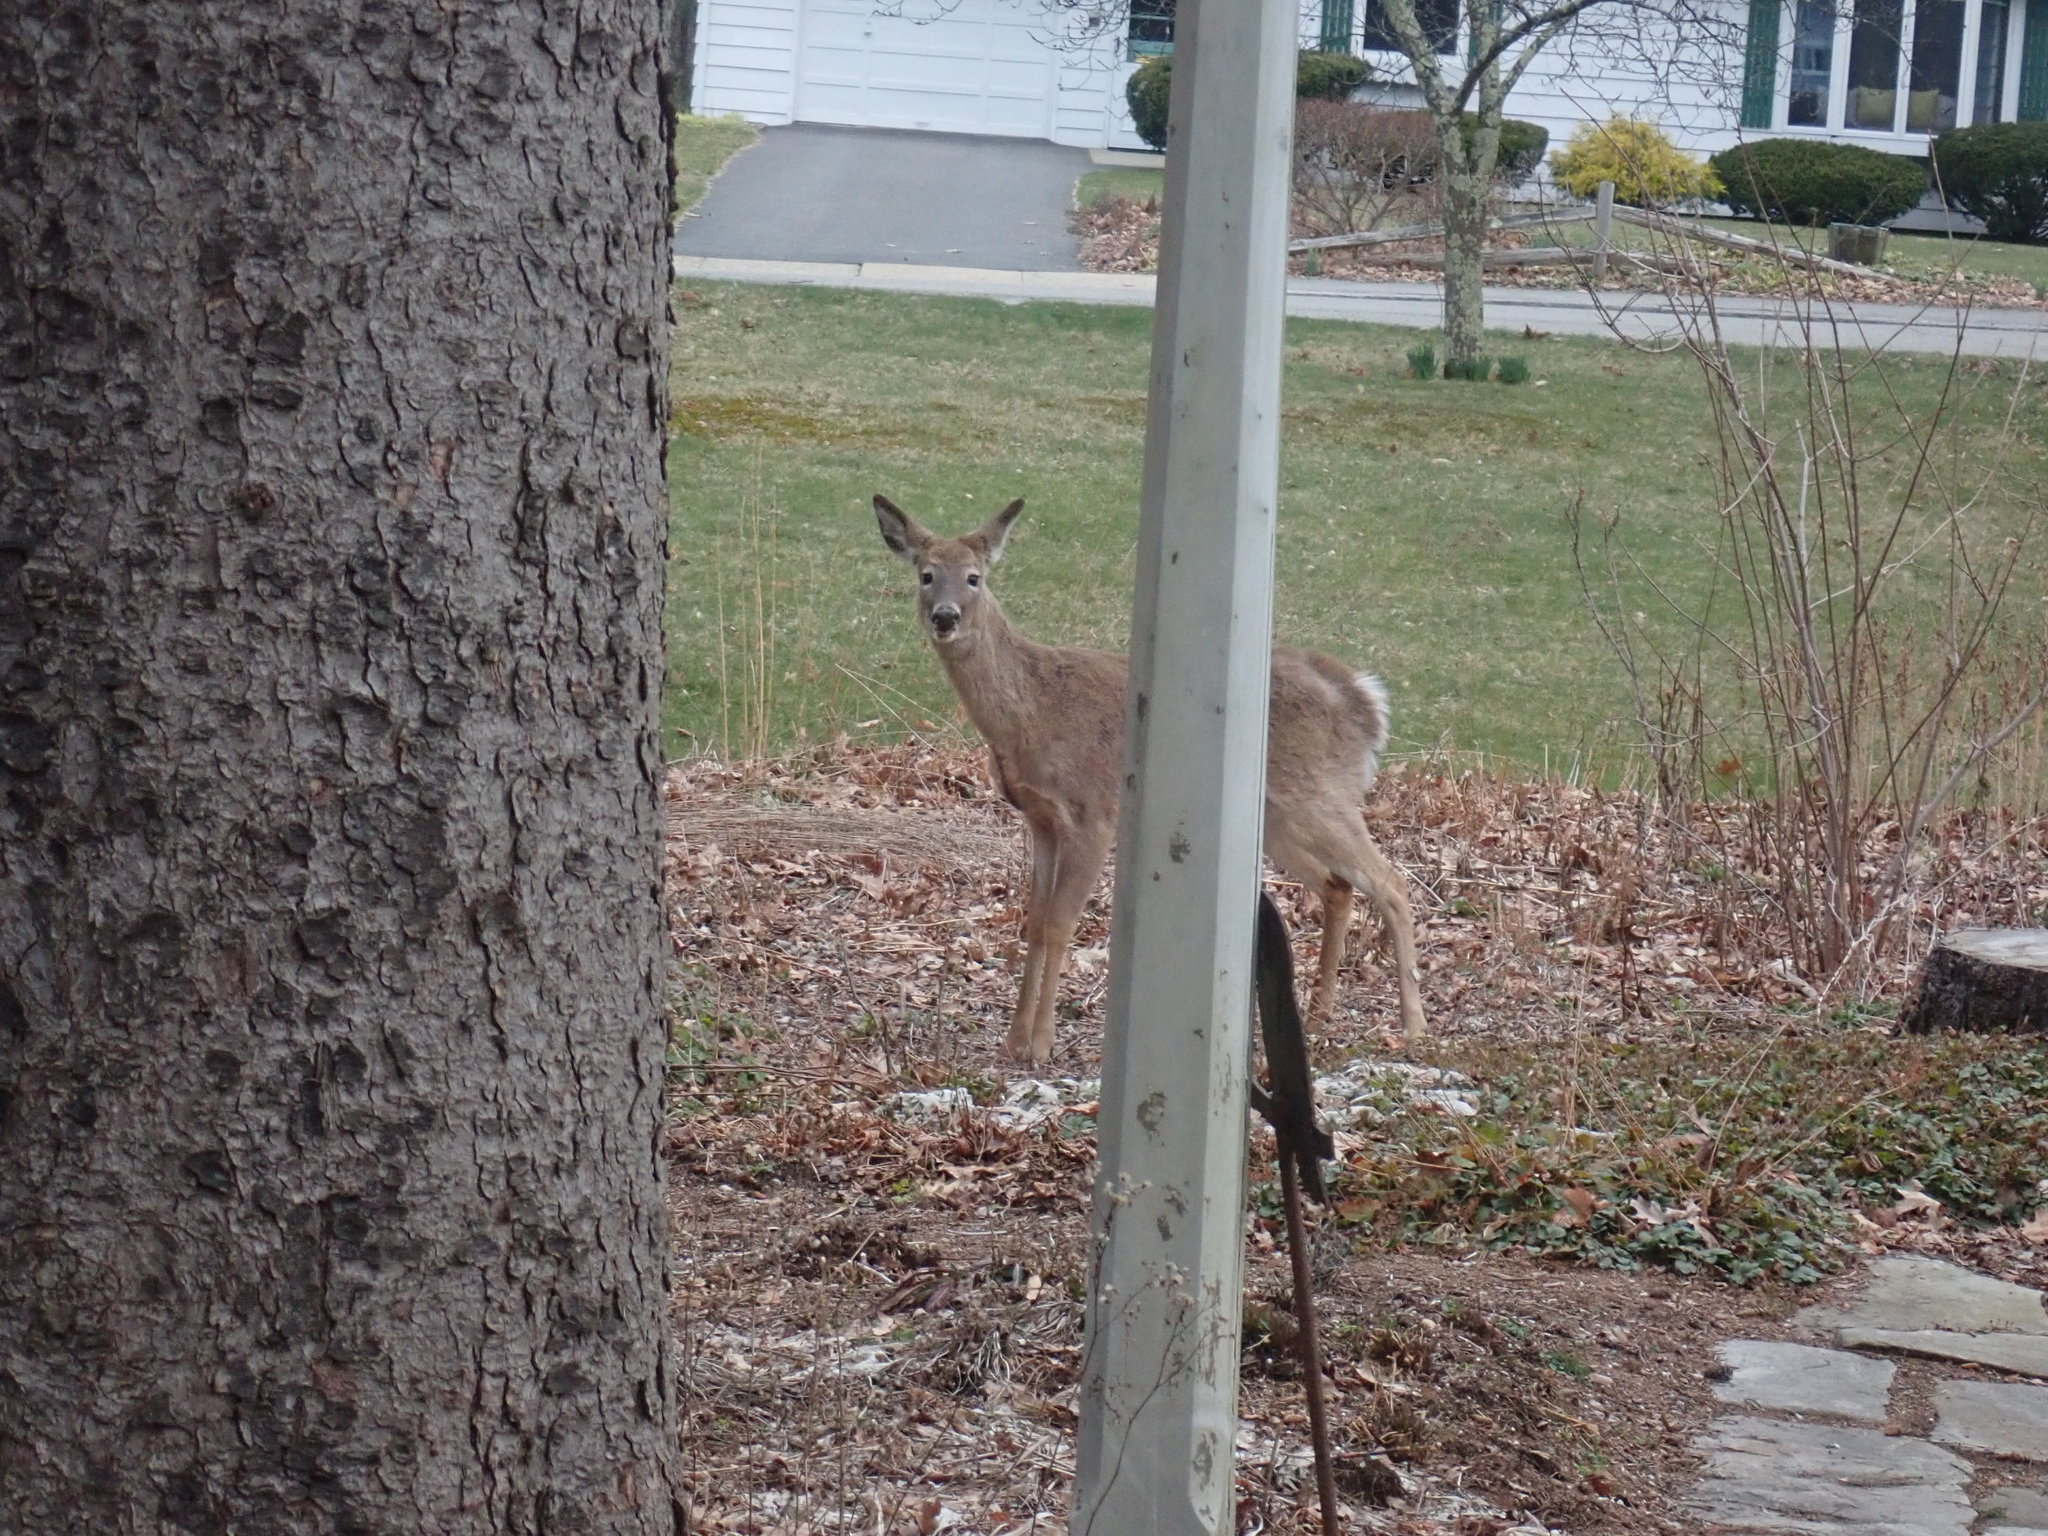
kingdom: Animalia
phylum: Chordata
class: Mammalia
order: Artiodactyla
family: Cervidae
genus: Odocoileus
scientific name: Odocoileus virginianus
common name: White-tailed deer
